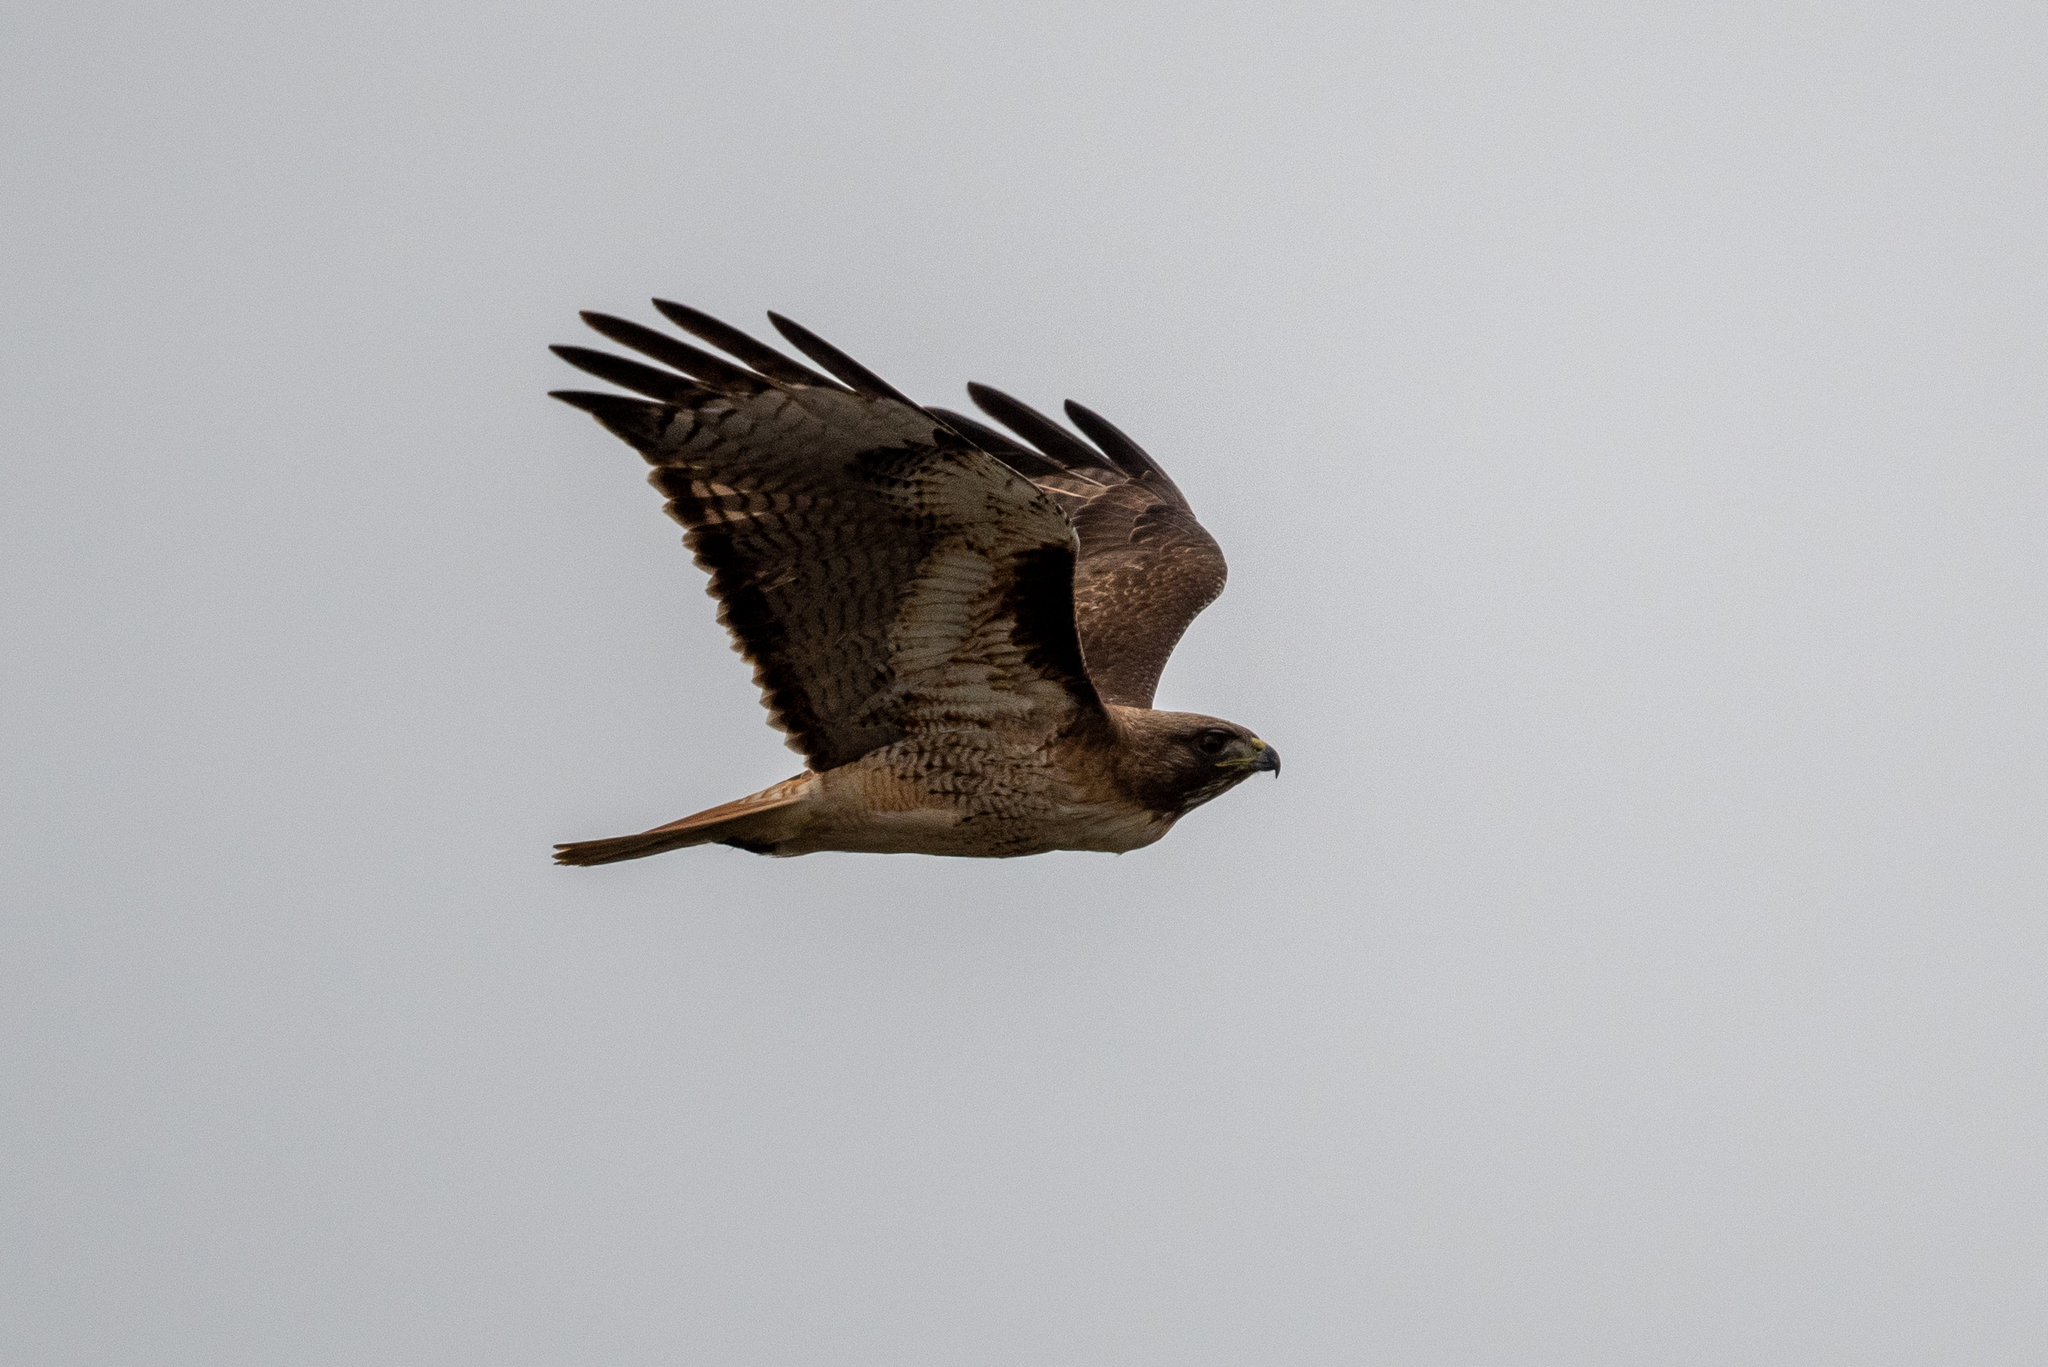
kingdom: Animalia
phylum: Chordata
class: Aves
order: Accipitriformes
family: Accipitridae
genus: Buteo
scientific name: Buteo jamaicensis
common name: Red-tailed hawk
